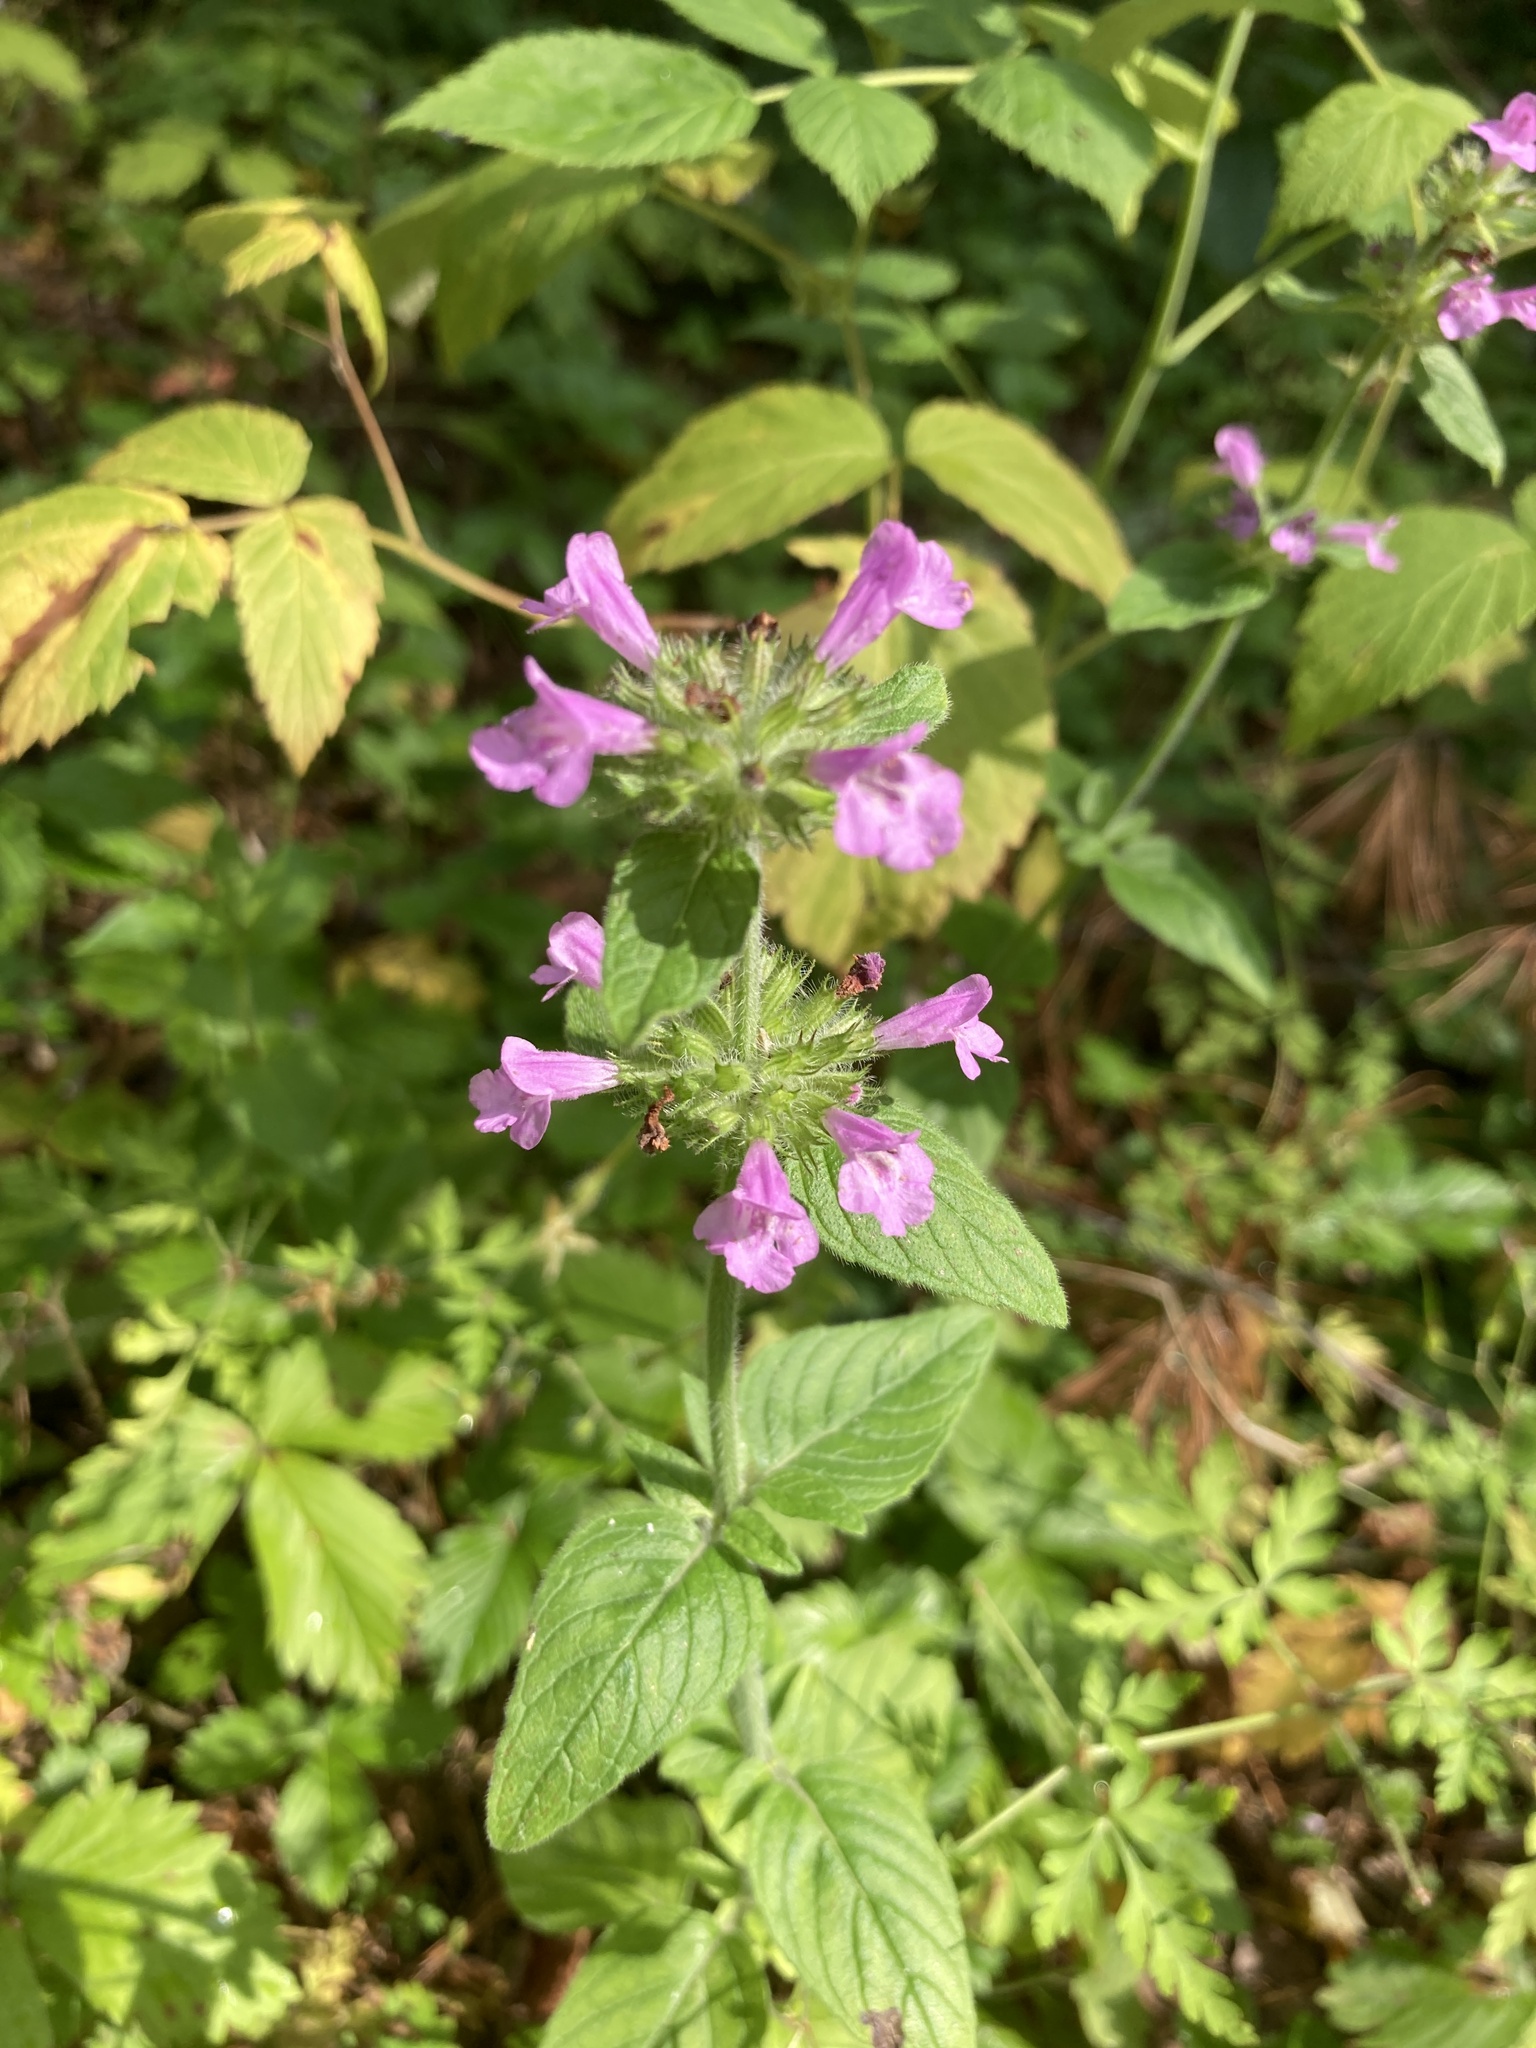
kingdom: Plantae
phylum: Tracheophyta
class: Magnoliopsida
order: Lamiales
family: Lamiaceae
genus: Clinopodium
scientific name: Clinopodium vulgare
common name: Wild basil
